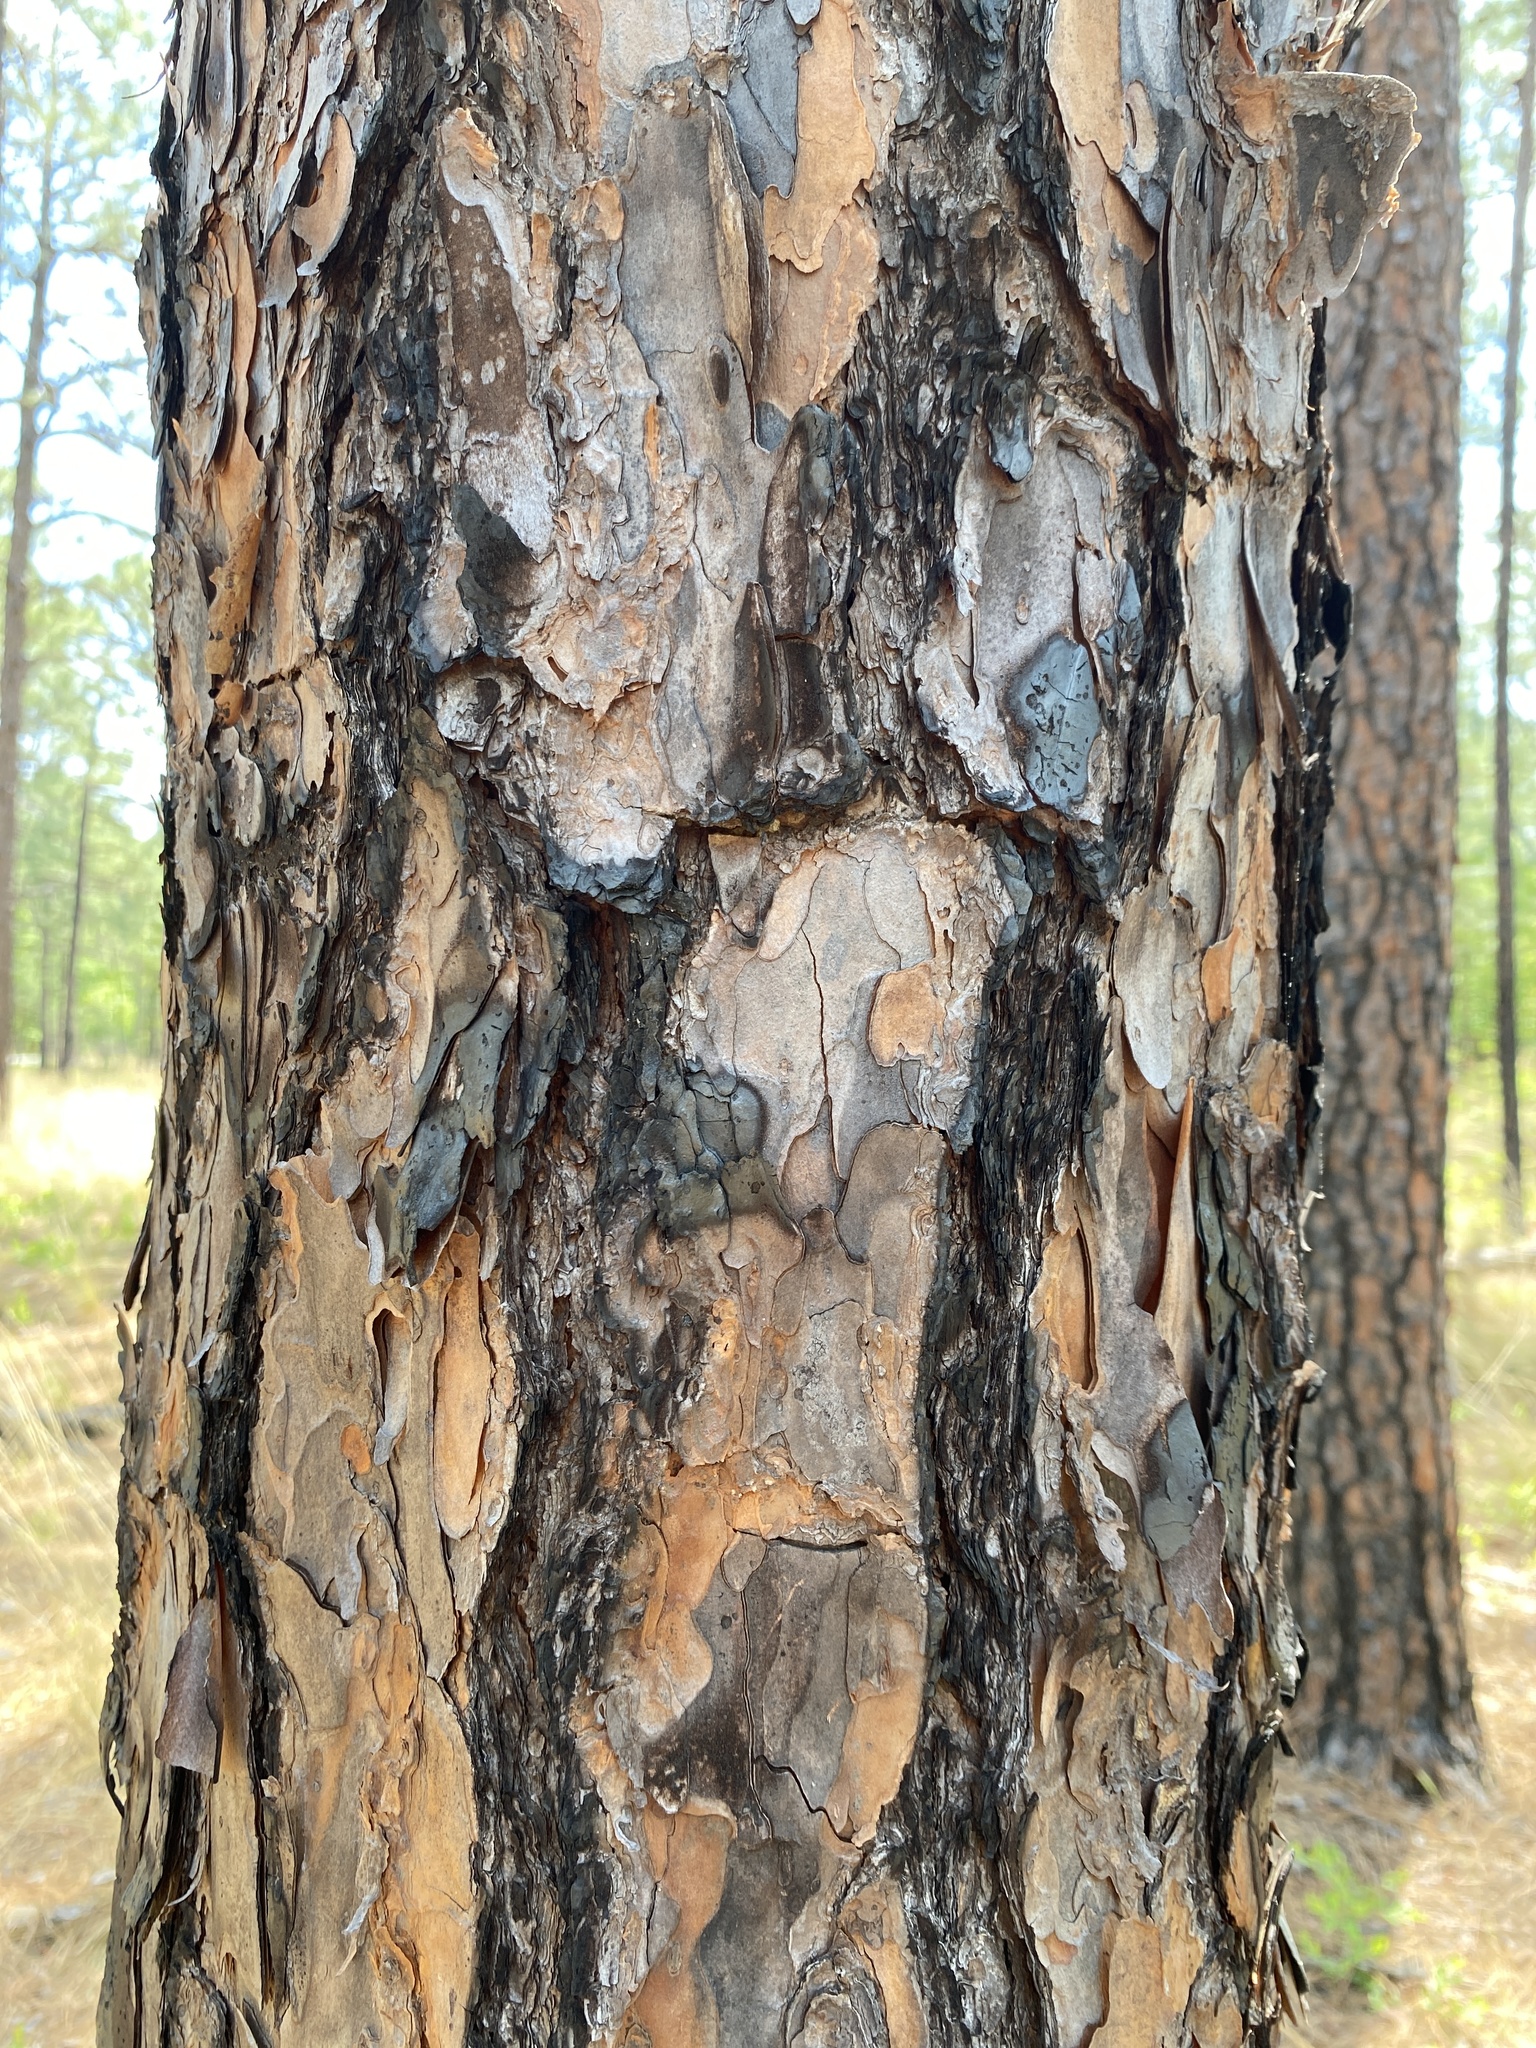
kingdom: Plantae
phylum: Tracheophyta
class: Pinopsida
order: Pinales
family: Pinaceae
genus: Pinus
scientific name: Pinus palustris
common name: Longleaf pine
